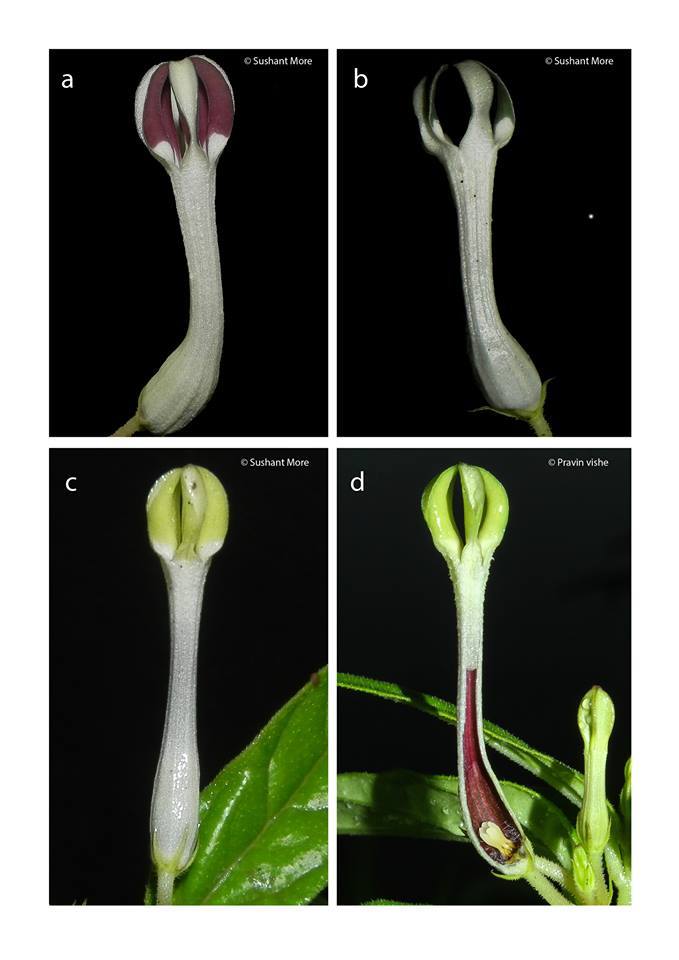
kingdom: Plantae
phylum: Tracheophyta
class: Magnoliopsida
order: Gentianales
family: Apocynaceae
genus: Ceropegia
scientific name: Ceropegia lawii
